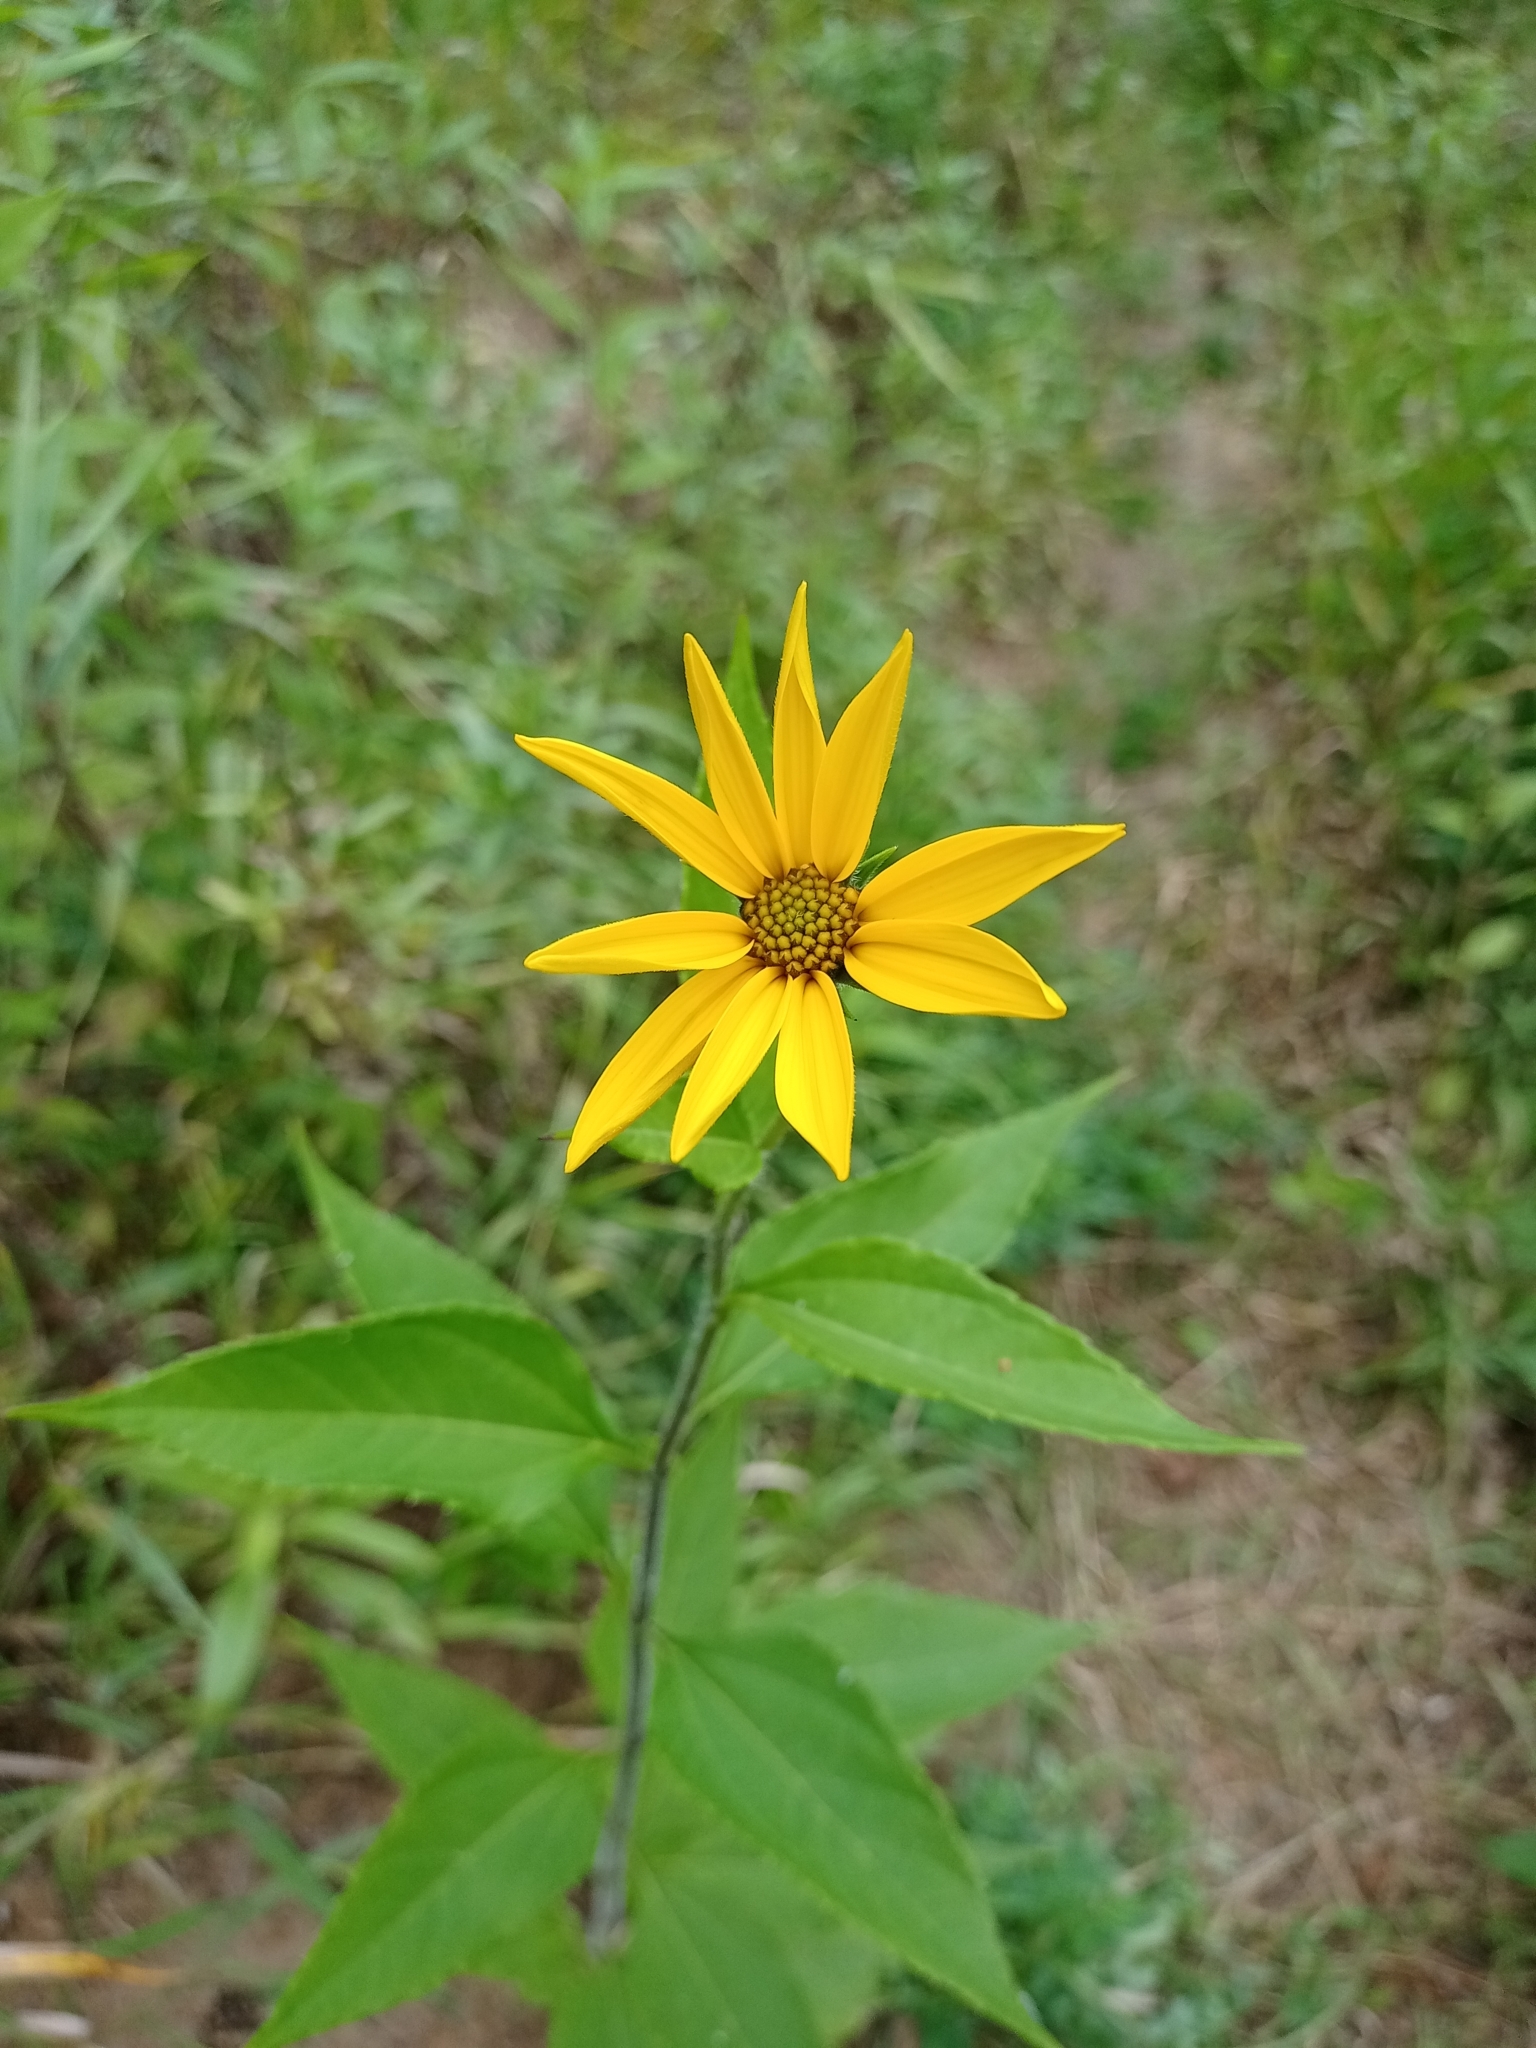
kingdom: Plantae
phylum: Tracheophyta
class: Magnoliopsida
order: Asterales
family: Asteraceae
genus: Helianthus
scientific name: Helianthus tuberosus
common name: Jerusalem artichoke
